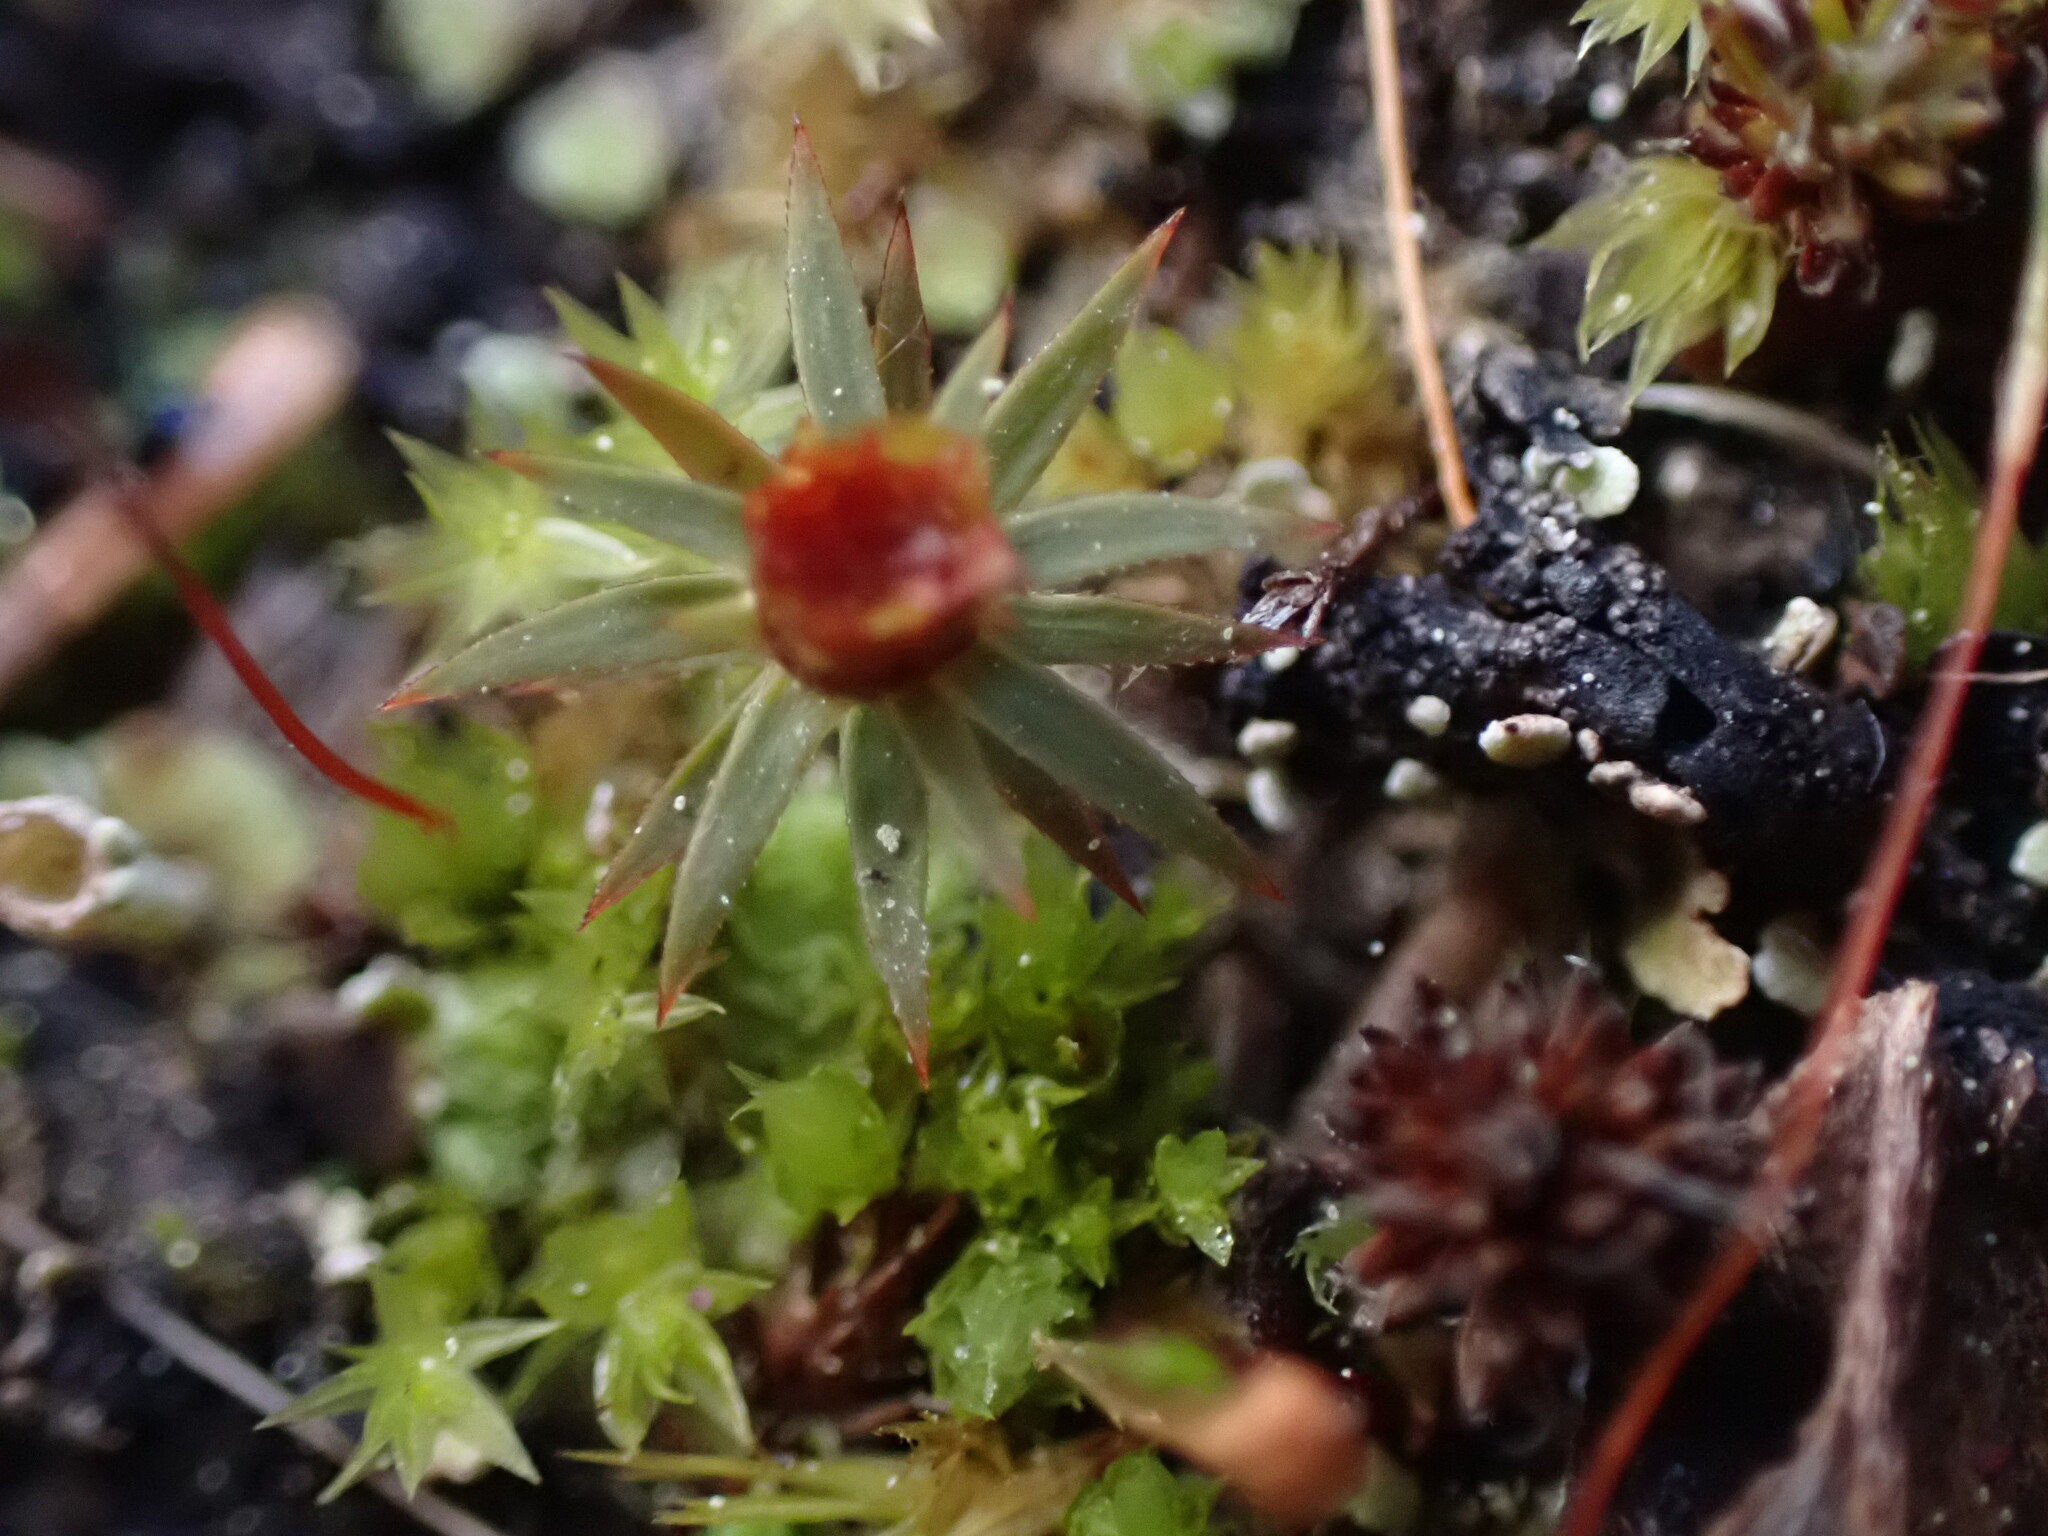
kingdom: Plantae
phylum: Bryophyta
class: Polytrichopsida
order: Polytrichales
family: Polytrichaceae
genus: Pogonatum
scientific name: Pogonatum urnigerum
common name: Urn hair moss
